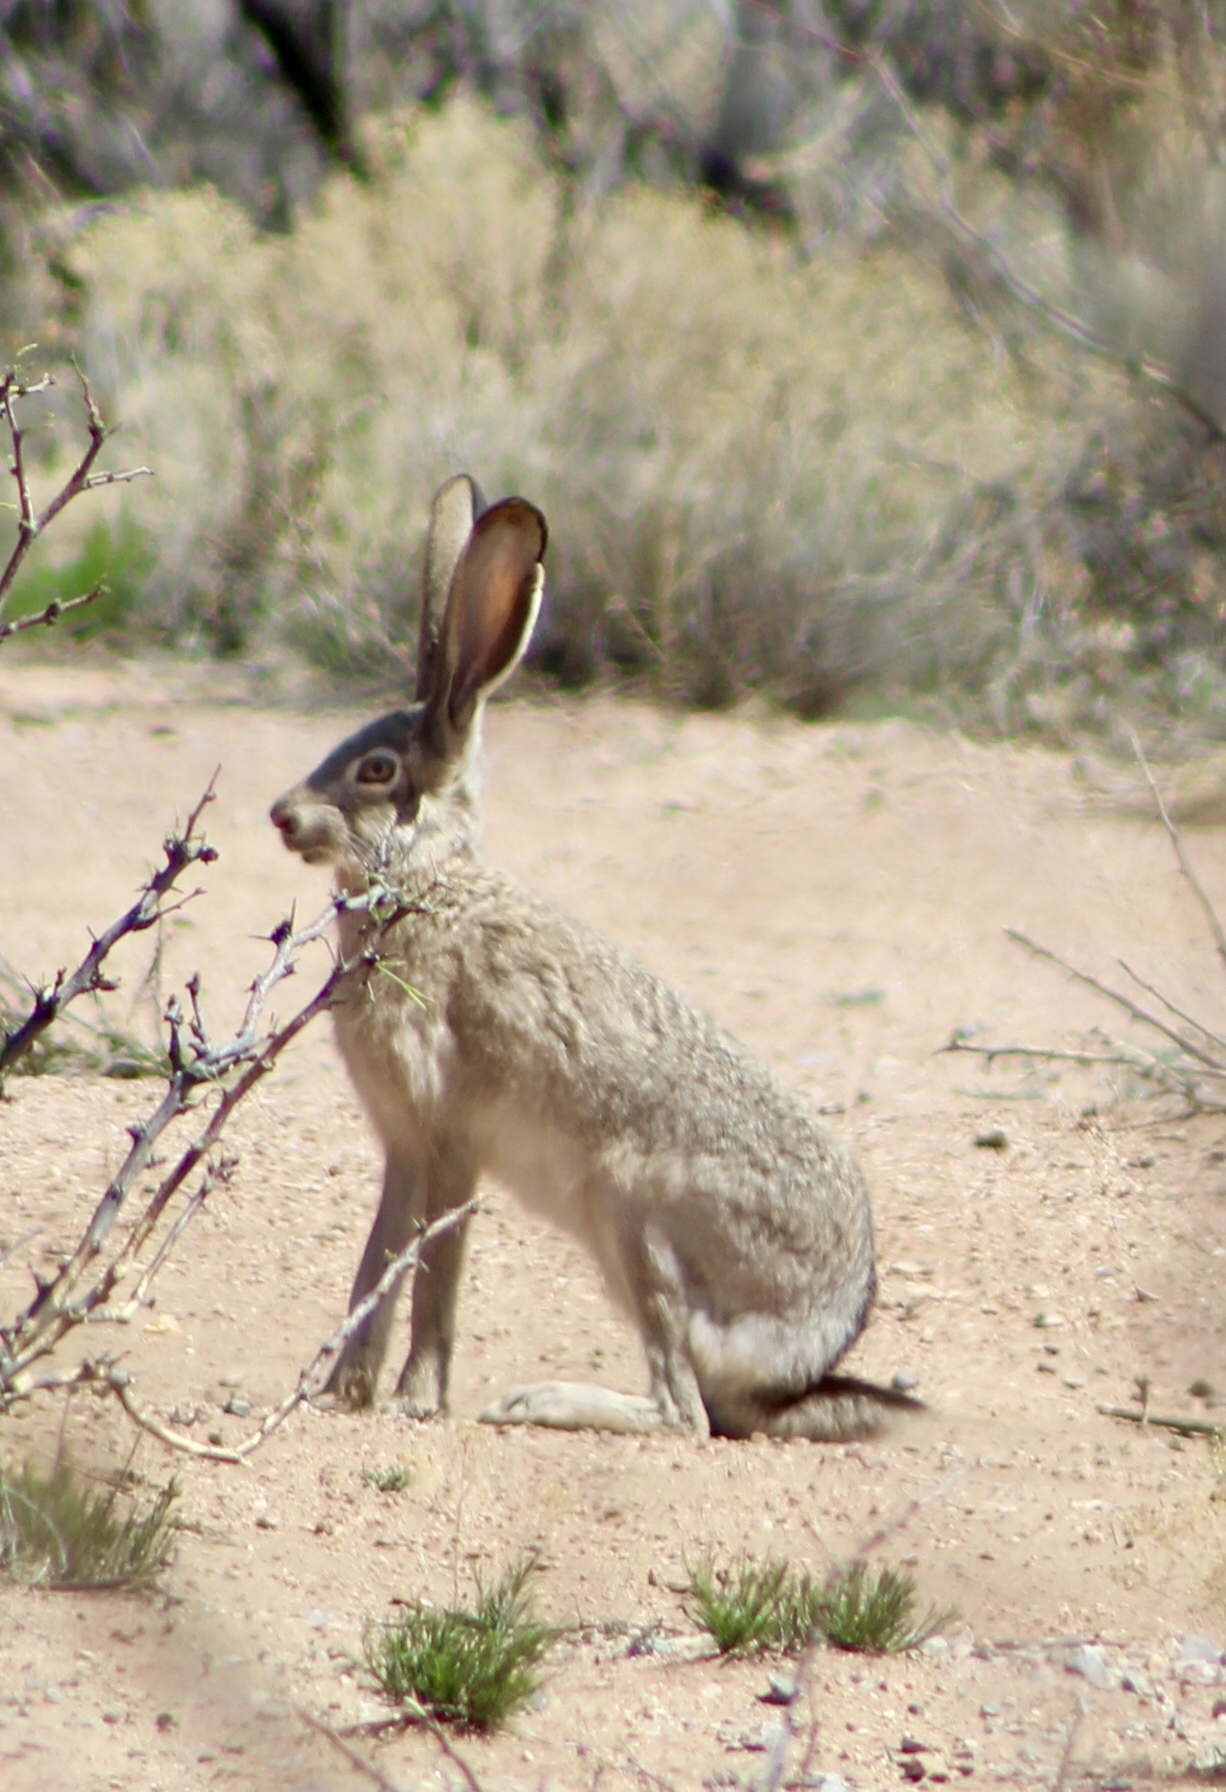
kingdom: Animalia
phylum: Chordata
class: Mammalia
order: Lagomorpha
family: Leporidae
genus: Lepus
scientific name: Lepus californicus
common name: Black-tailed jackrabbit
